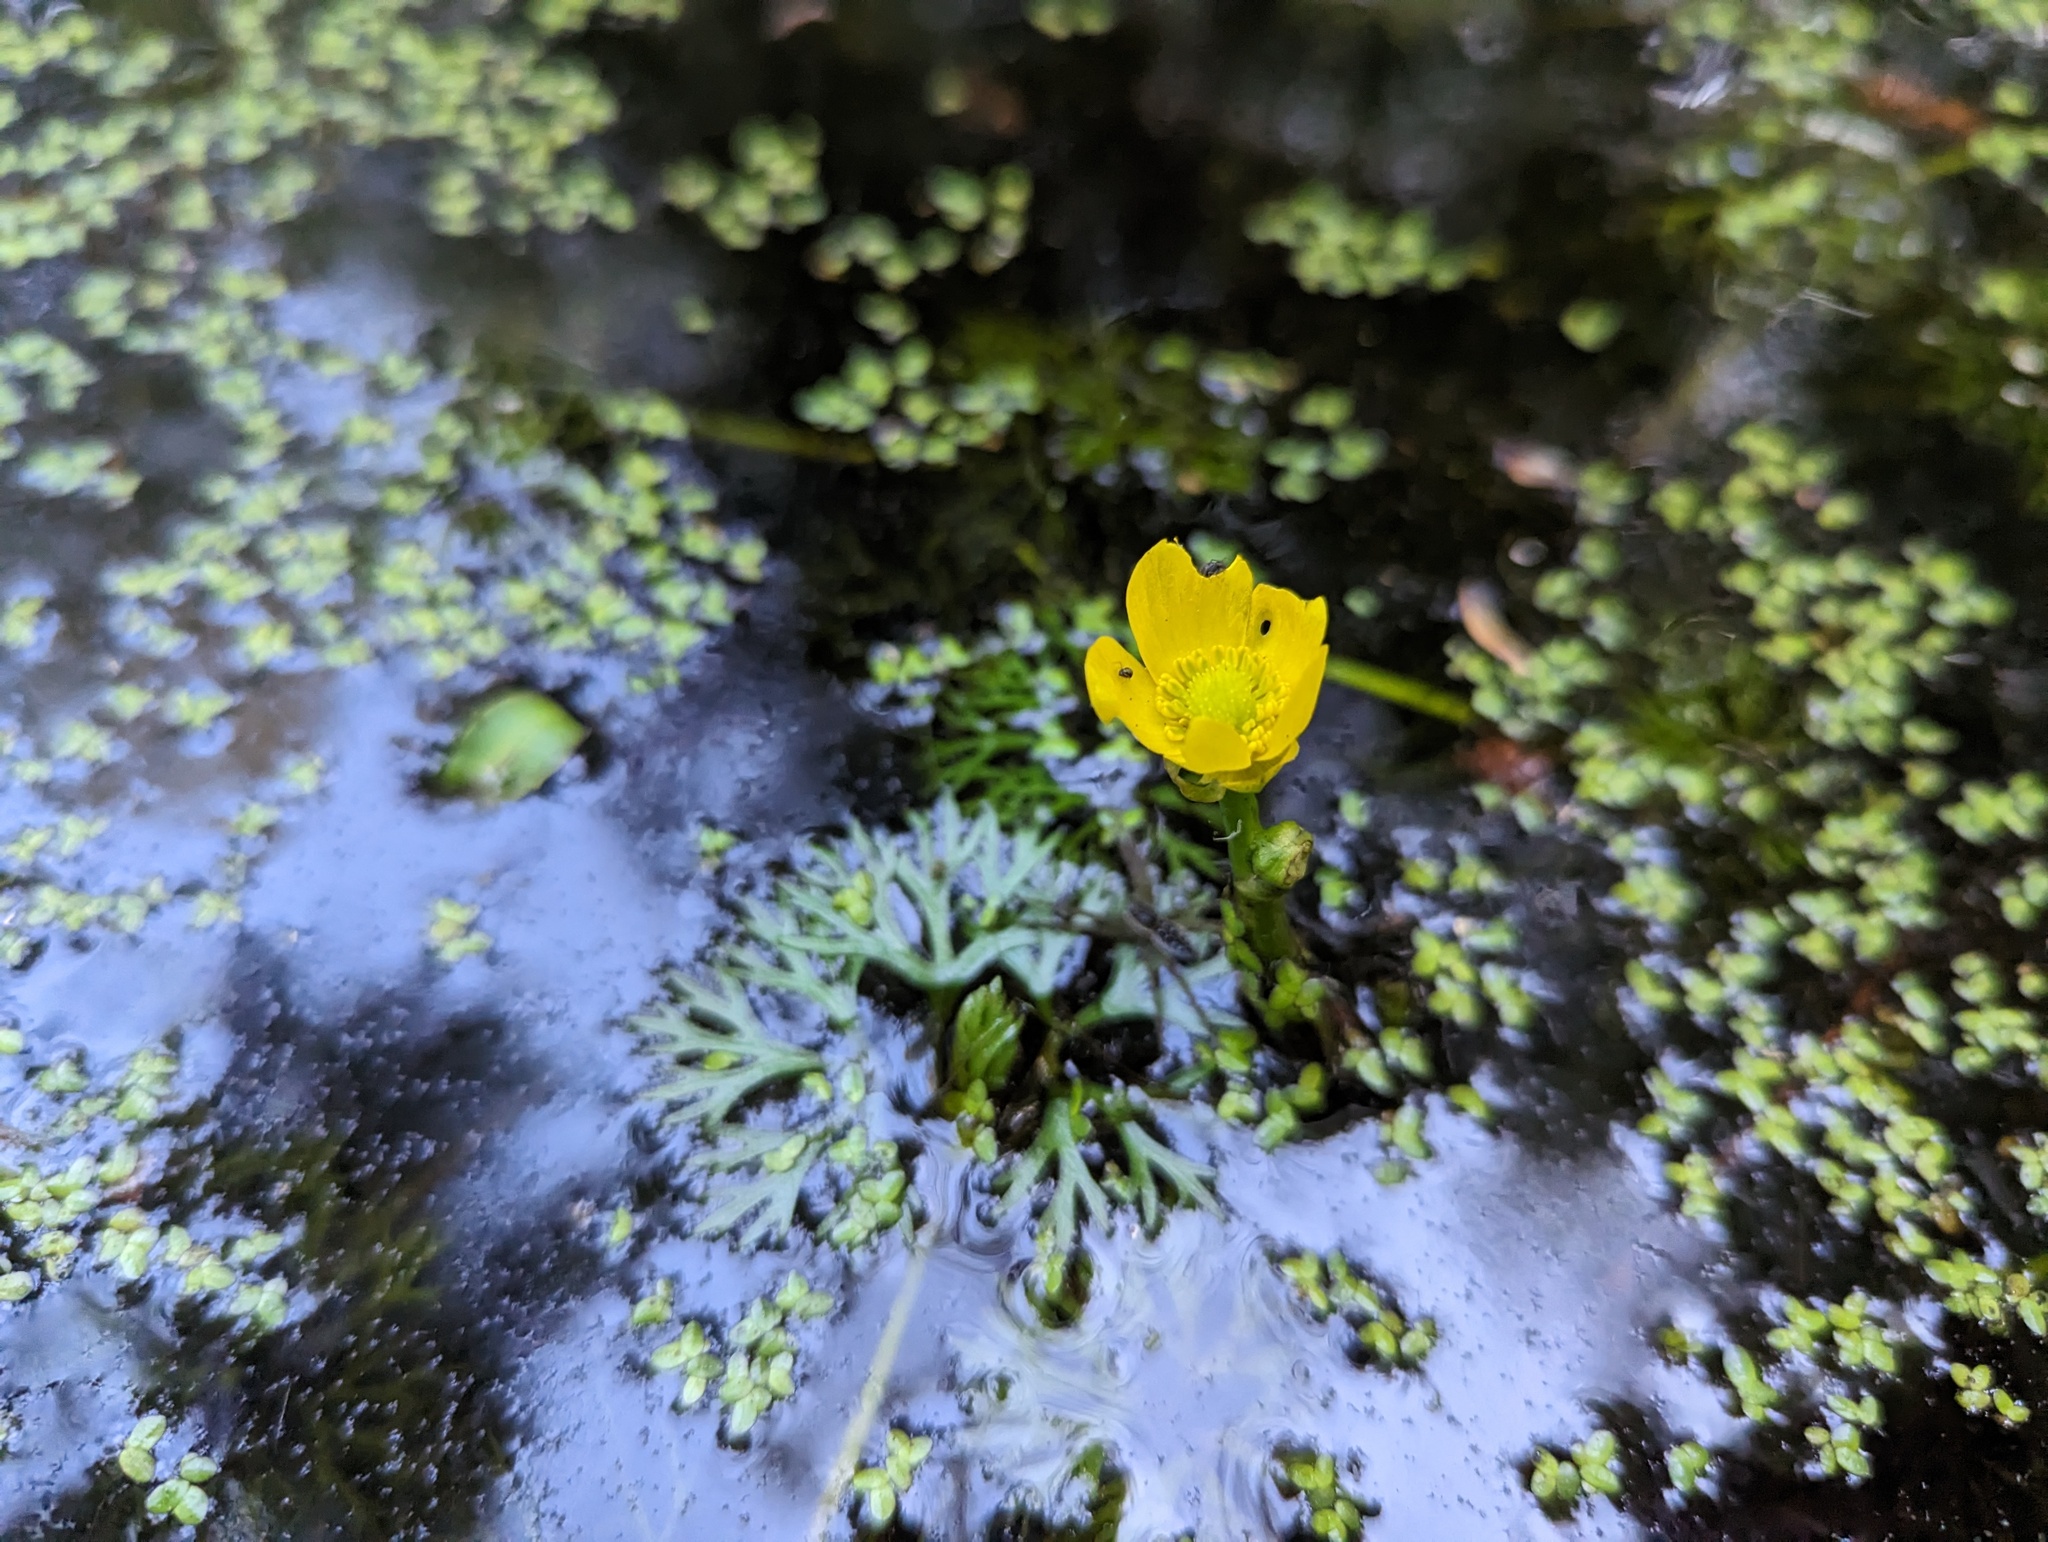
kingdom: Plantae
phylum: Tracheophyta
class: Magnoliopsida
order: Ranunculales
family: Ranunculaceae
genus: Ranunculus
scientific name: Ranunculus flabellaris
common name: Yellow water-crowfoot
